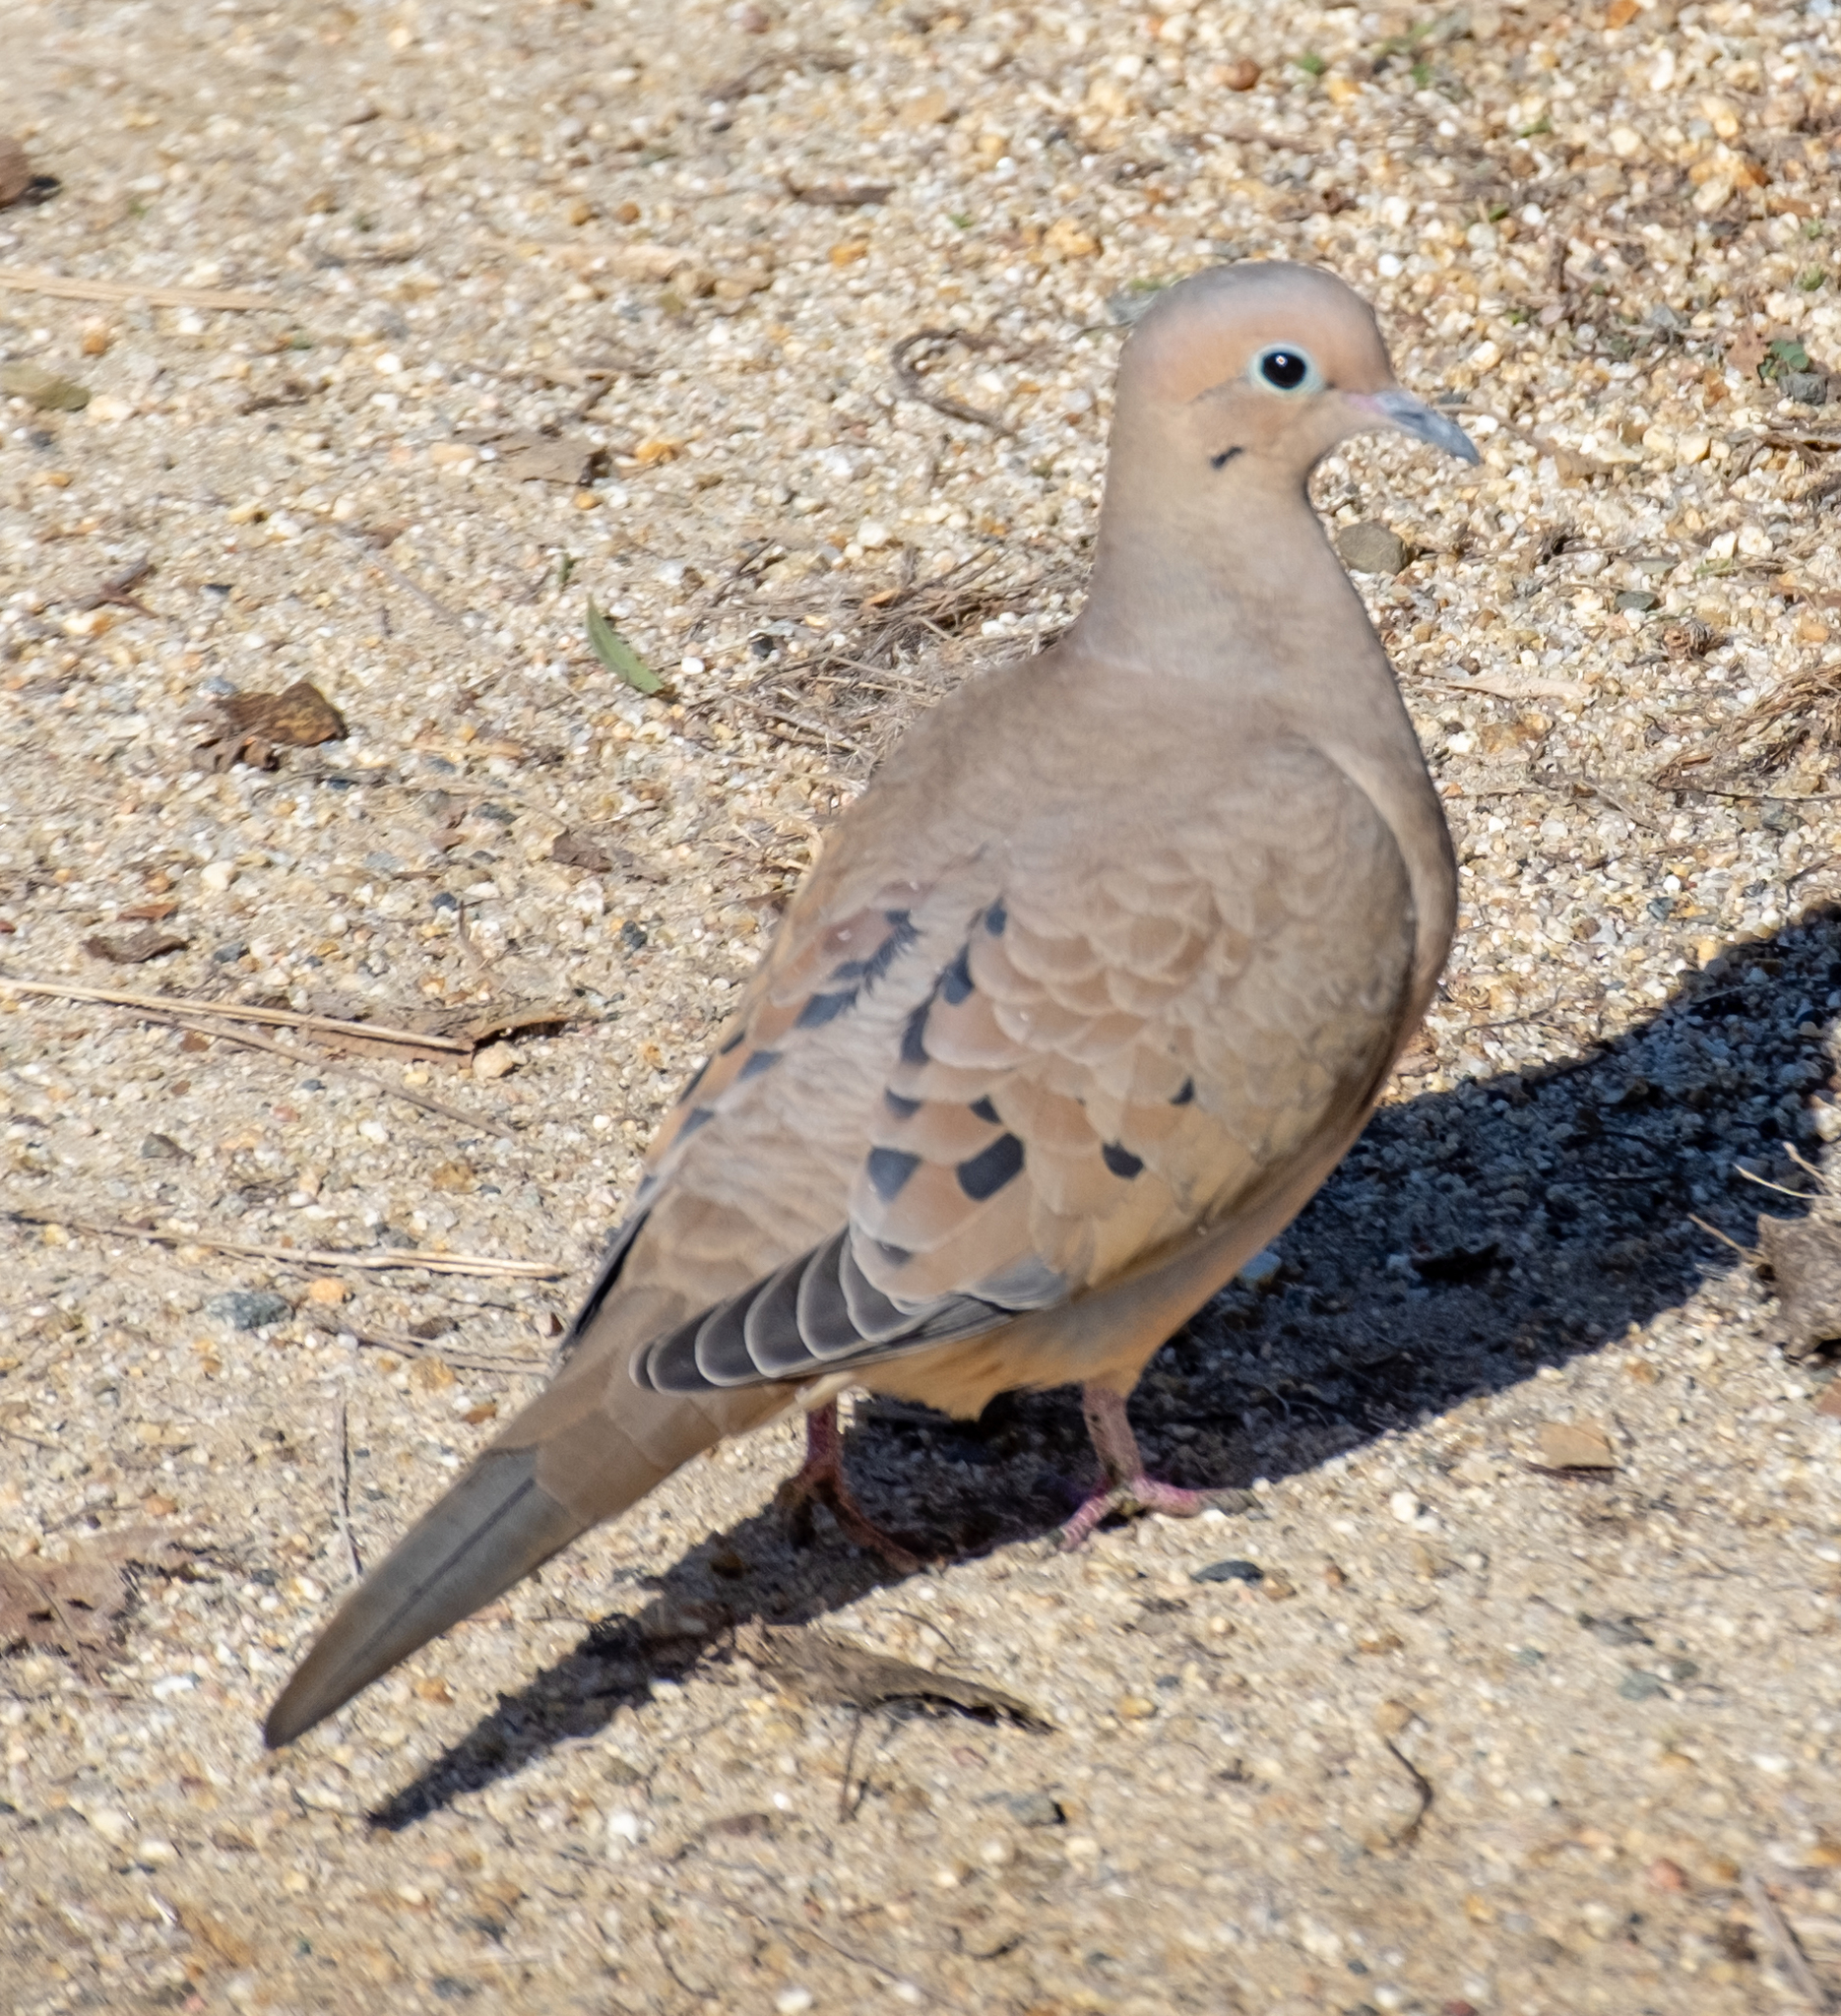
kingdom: Animalia
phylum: Chordata
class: Aves
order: Columbiformes
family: Columbidae
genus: Zenaida
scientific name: Zenaida macroura
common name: Mourning dove
